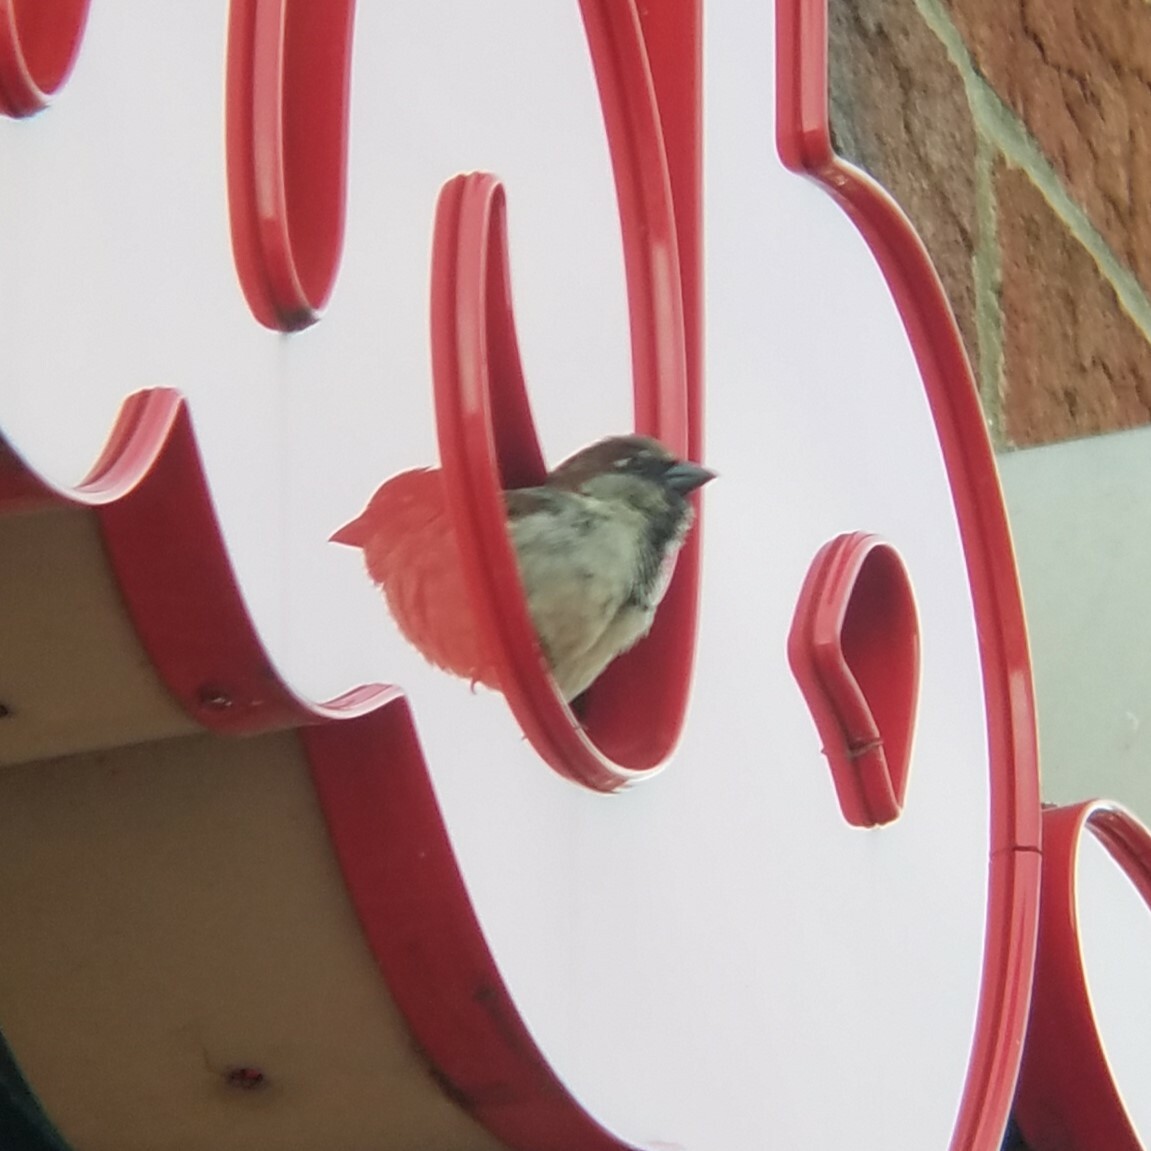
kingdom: Animalia
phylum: Chordata
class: Aves
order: Passeriformes
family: Passeridae
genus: Passer
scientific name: Passer domesticus
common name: House sparrow
